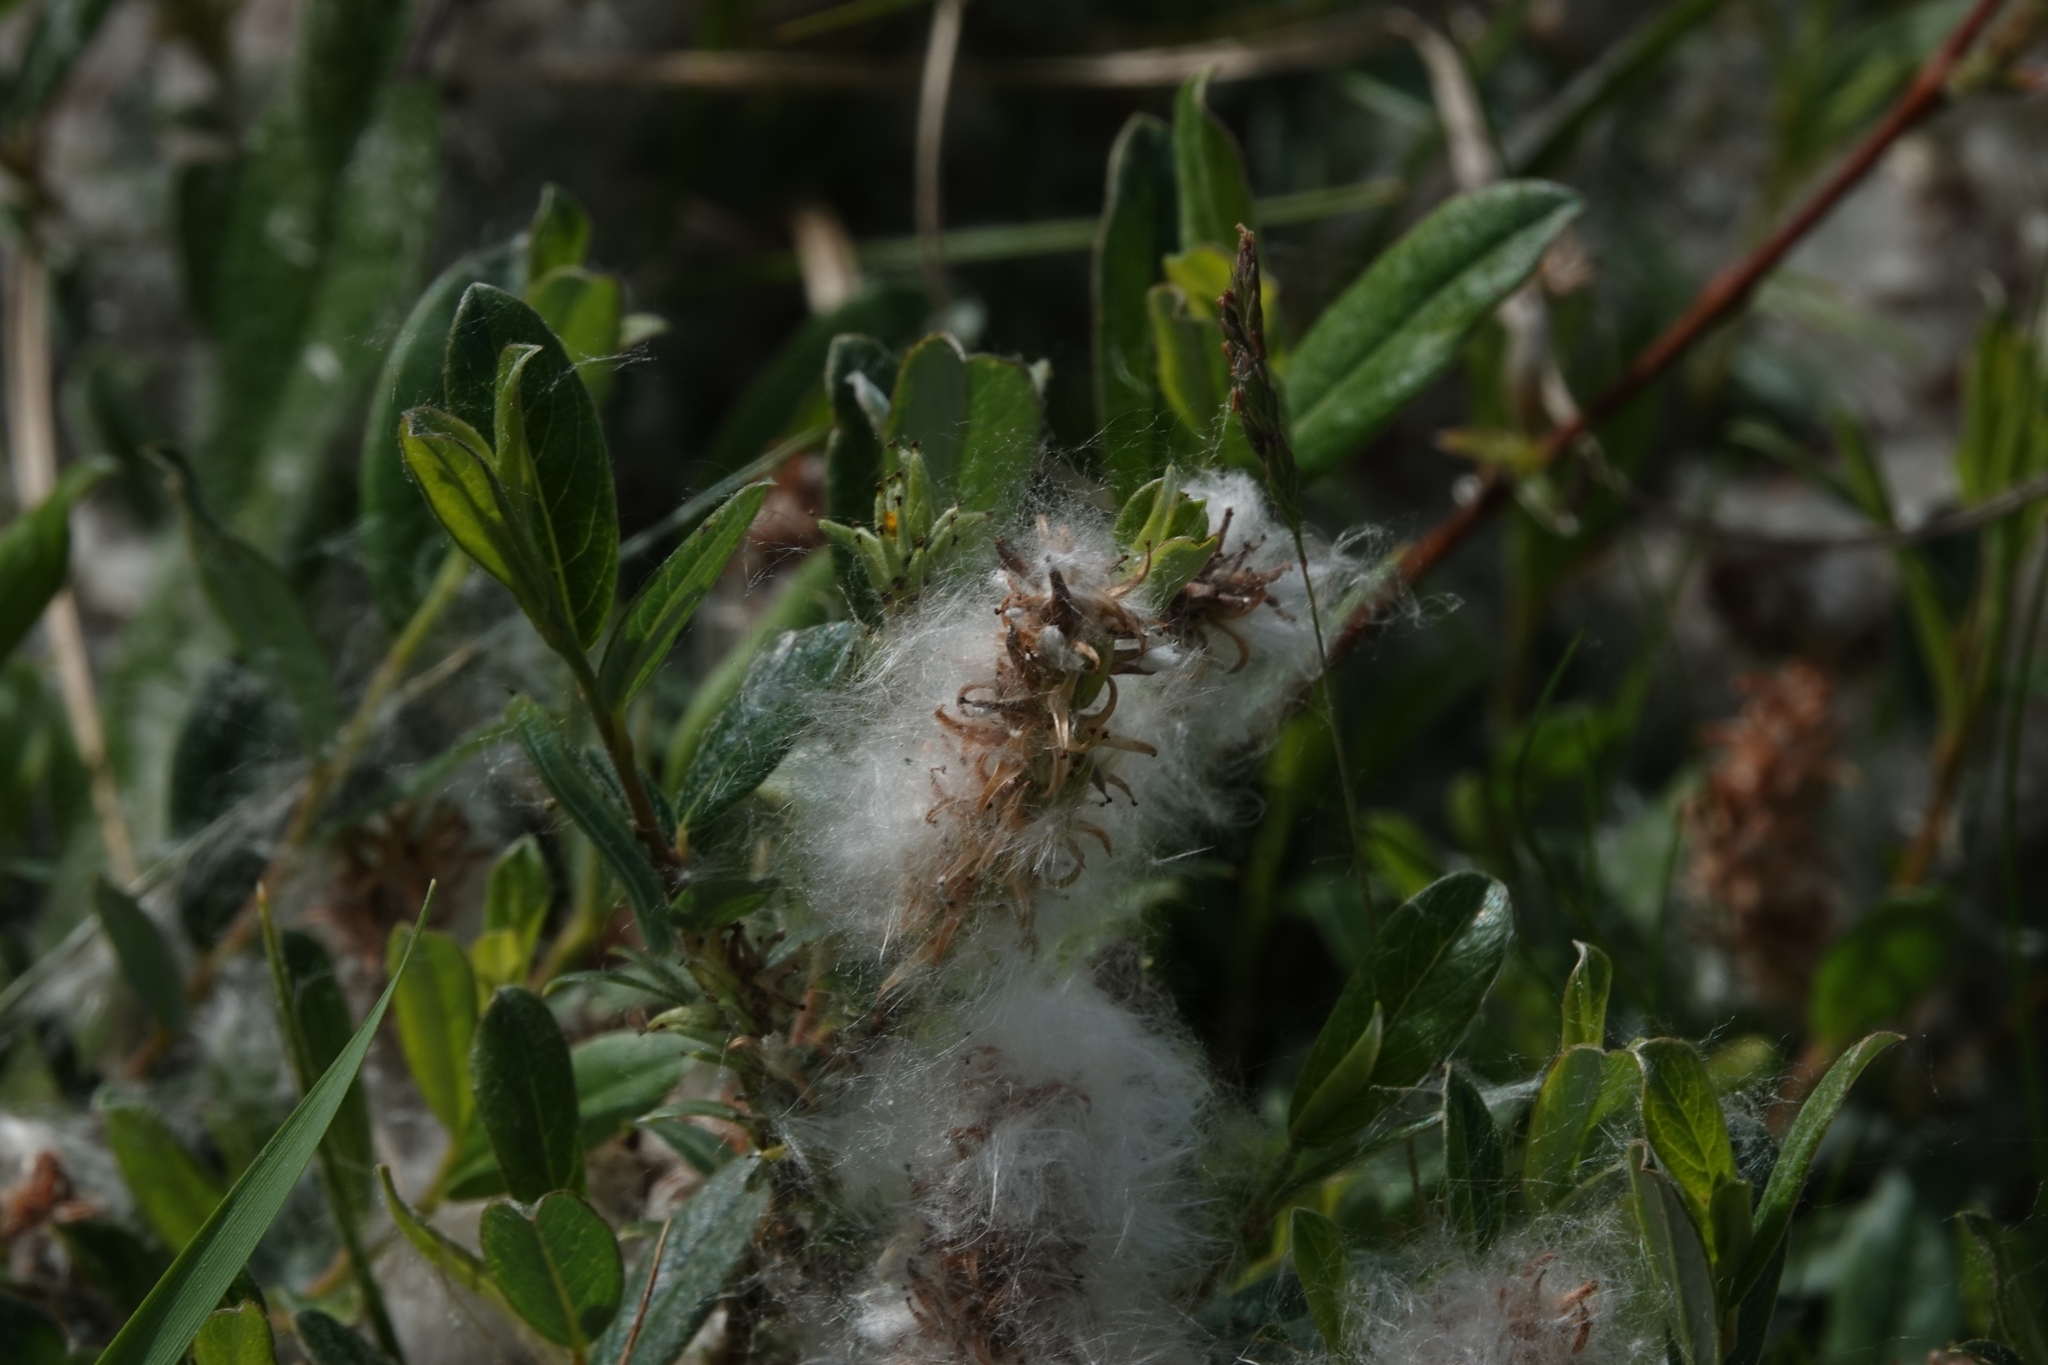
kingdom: Plantae
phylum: Tracheophyta
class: Magnoliopsida
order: Malpighiales
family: Salicaceae
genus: Salix
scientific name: Salix repens
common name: Creeping willow
